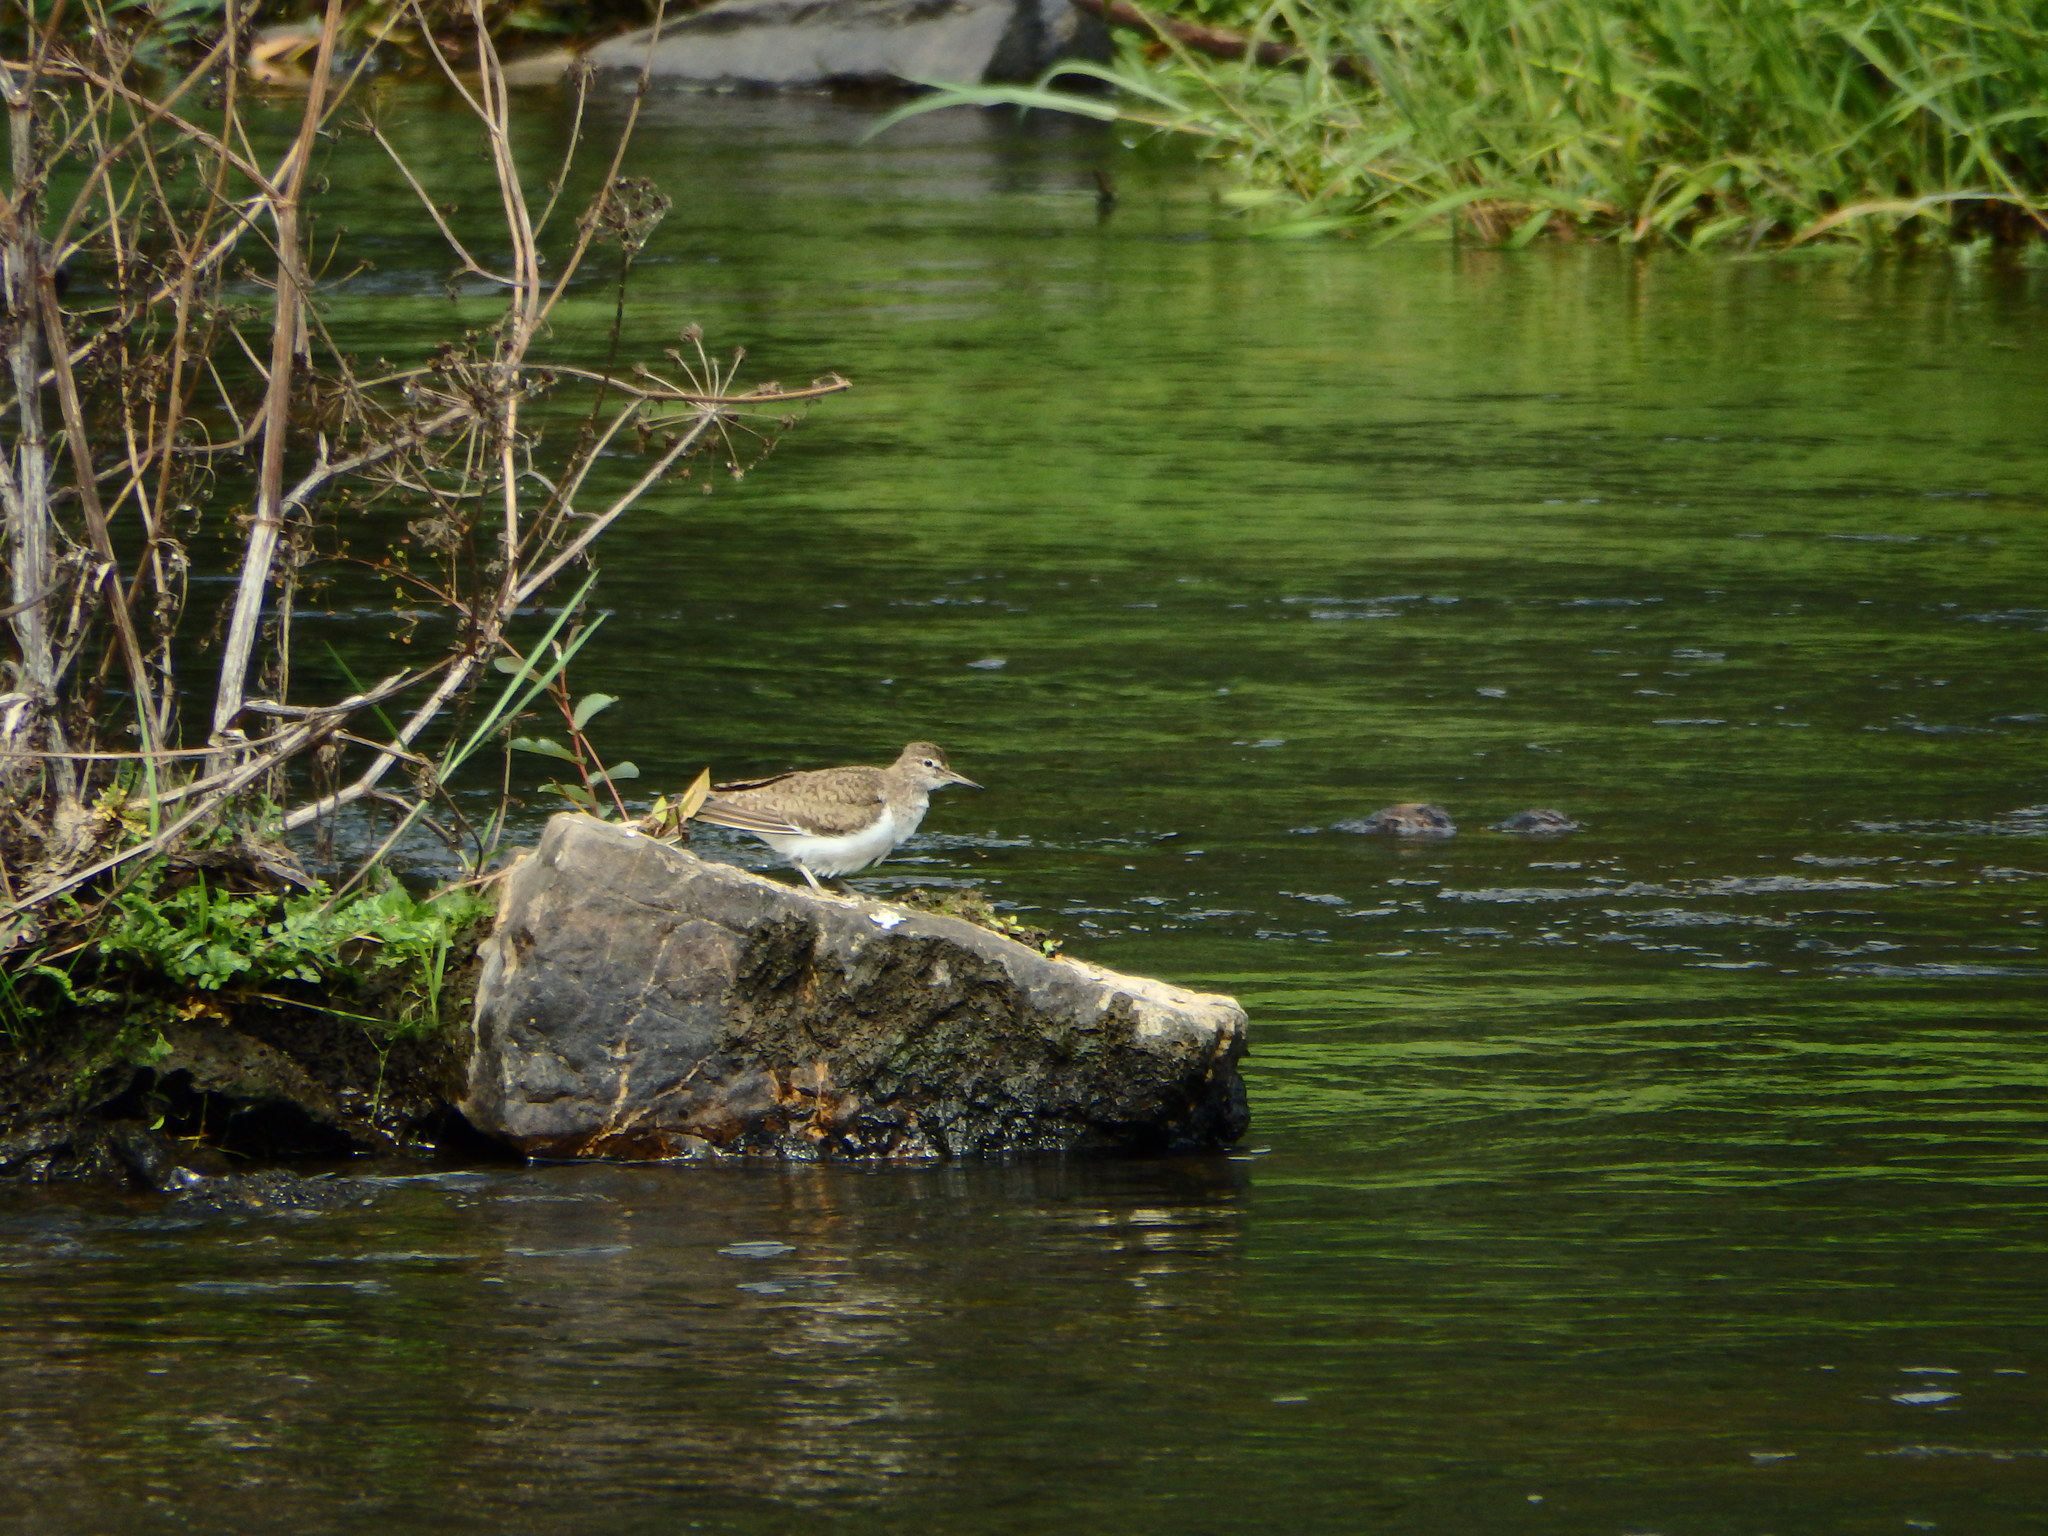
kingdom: Animalia
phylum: Chordata
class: Aves
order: Charadriiformes
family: Scolopacidae
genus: Actitis
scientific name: Actitis hypoleucos
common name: Common sandpiper
